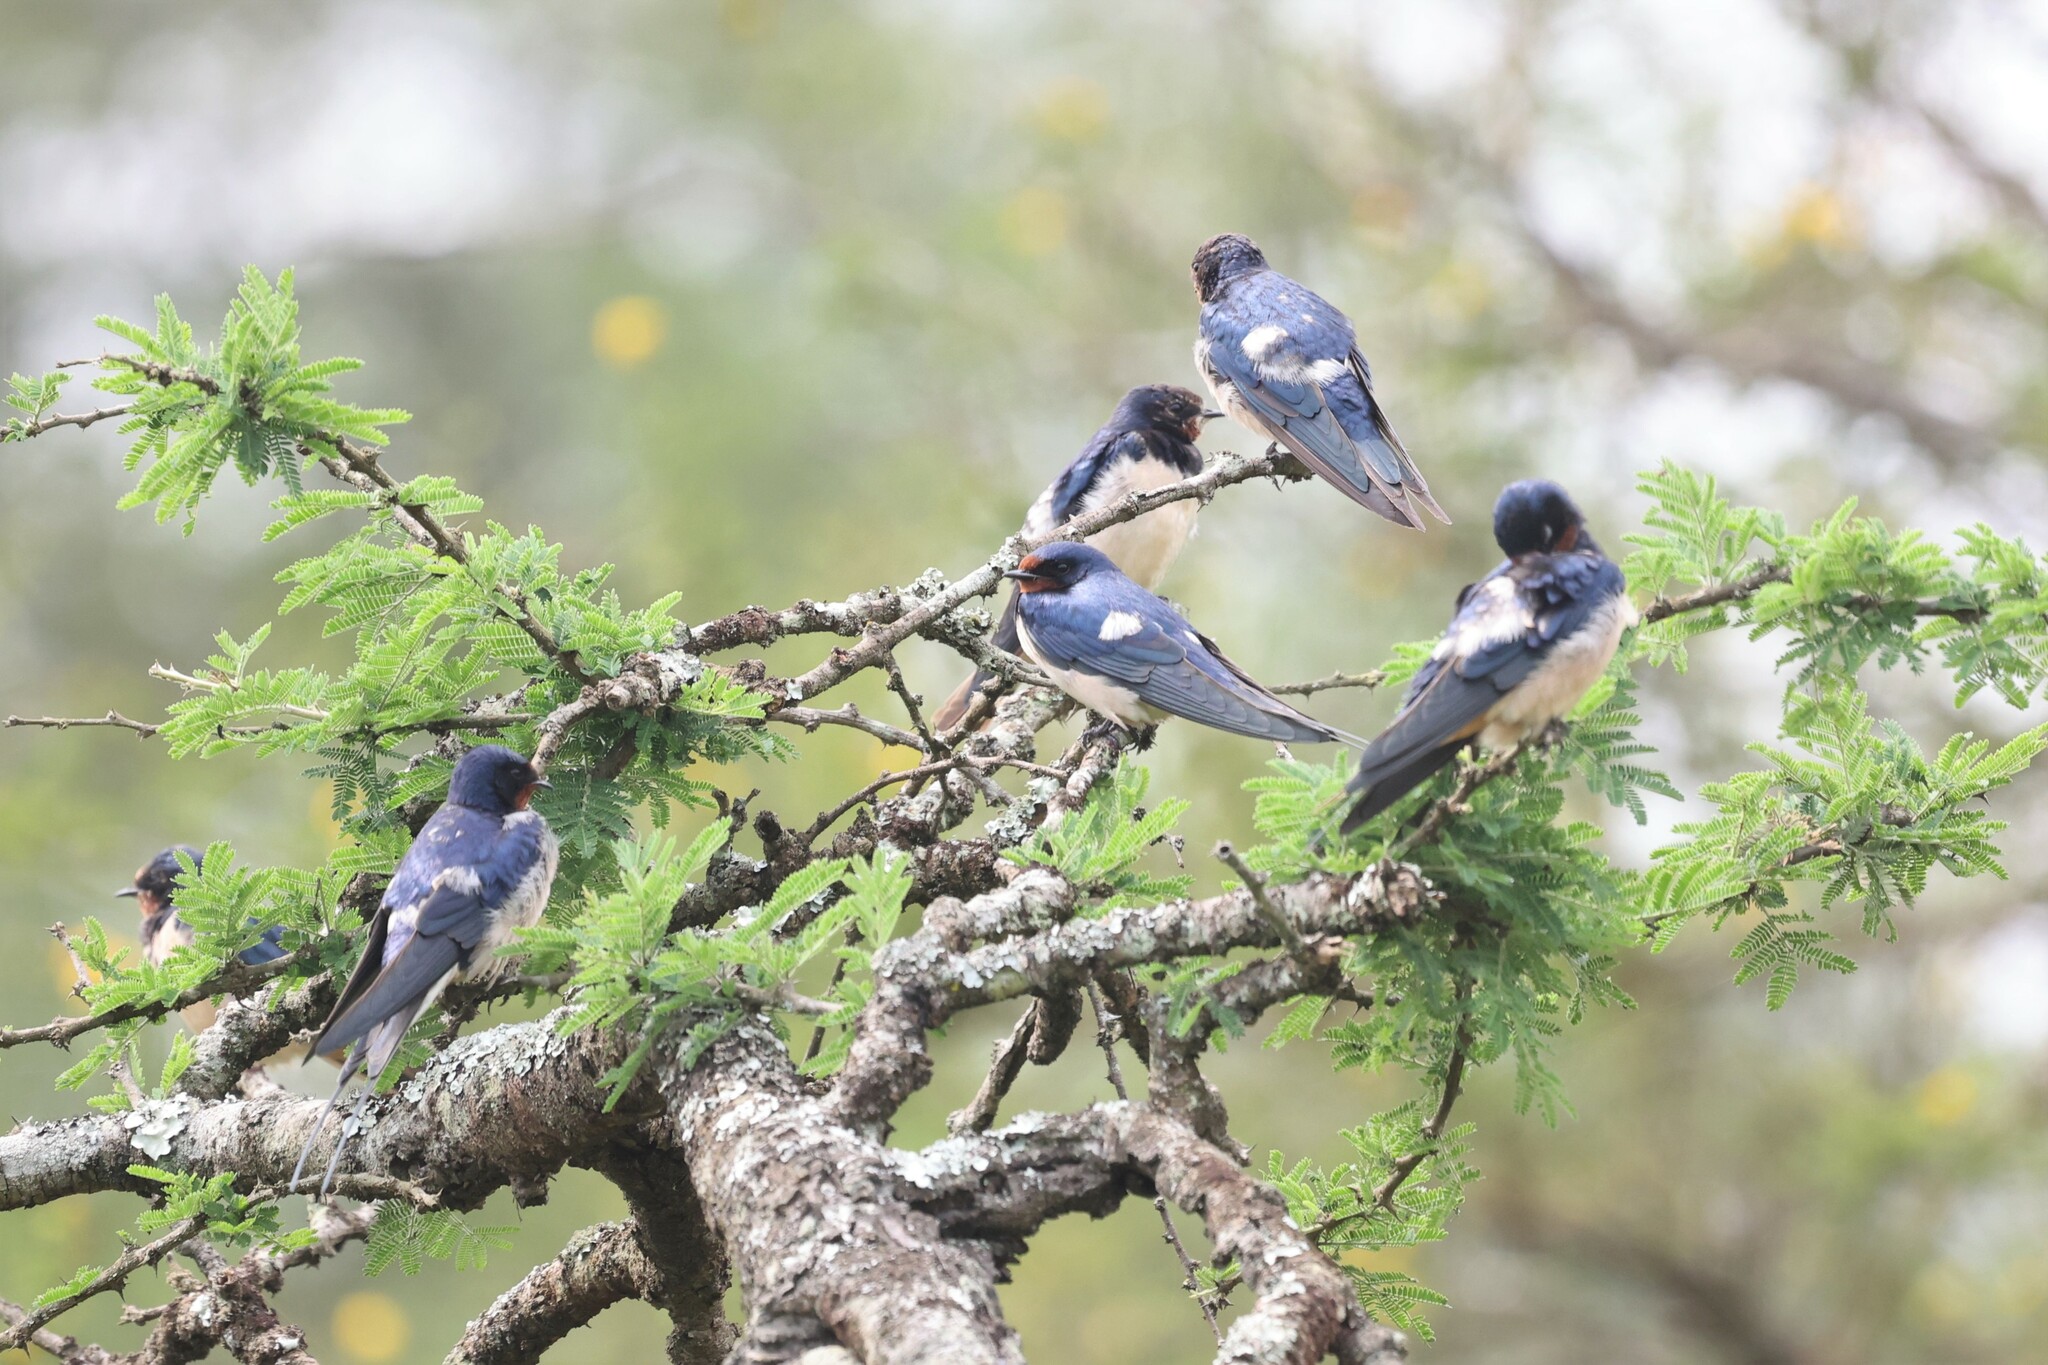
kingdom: Animalia
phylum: Chordata
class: Aves
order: Passeriformes
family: Hirundinidae
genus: Hirundo
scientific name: Hirundo rustica
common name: Barn swallow
